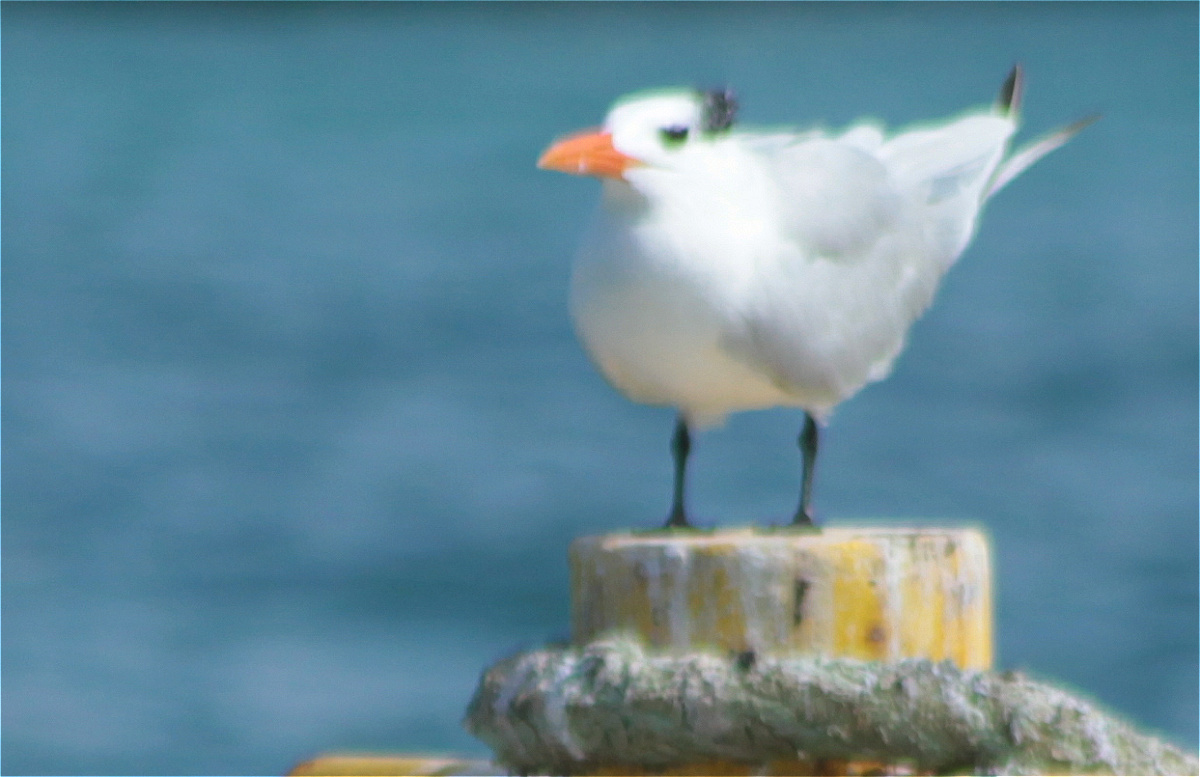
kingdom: Animalia
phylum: Chordata
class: Aves
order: Charadriiformes
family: Laridae
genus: Thalasseus
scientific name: Thalasseus maximus
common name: Royal tern
